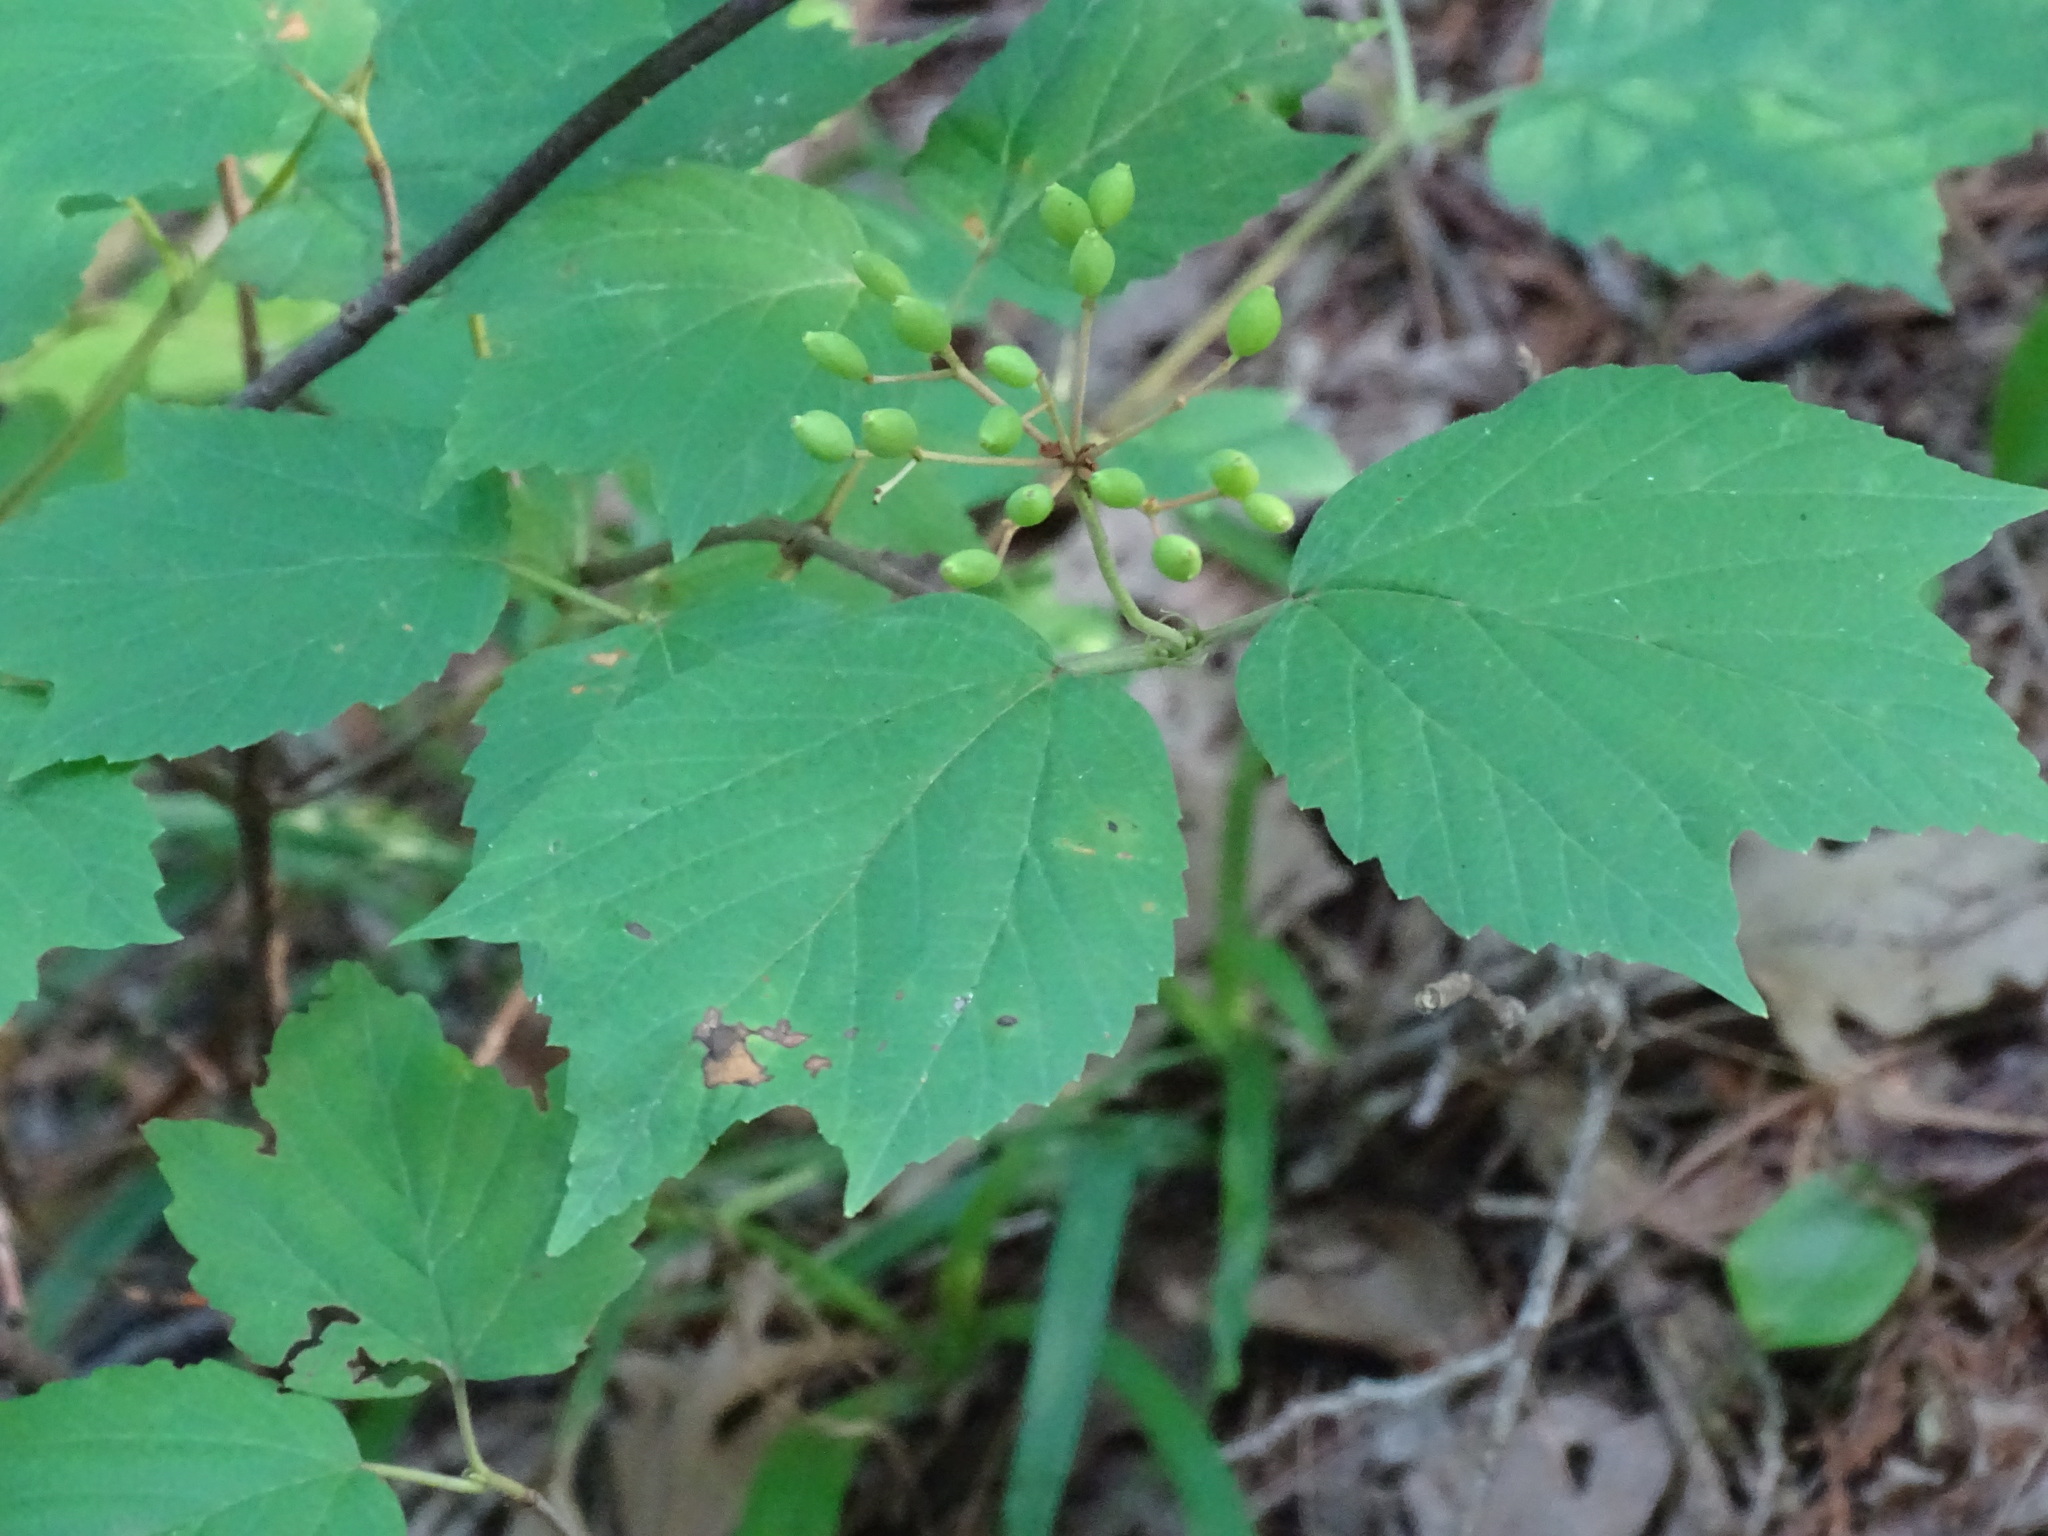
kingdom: Plantae
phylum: Tracheophyta
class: Magnoliopsida
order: Dipsacales
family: Viburnaceae
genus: Viburnum
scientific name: Viburnum acerifolium
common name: Dockmackie
